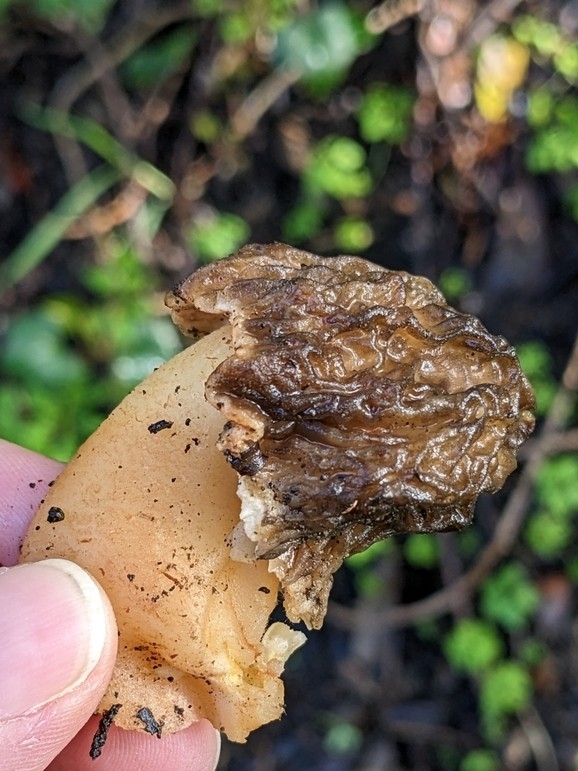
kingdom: Fungi
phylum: Ascomycota
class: Pezizomycetes
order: Pezizales
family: Morchellaceae
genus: Verpa
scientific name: Verpa bohemica
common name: Wrinkled thimble morel
